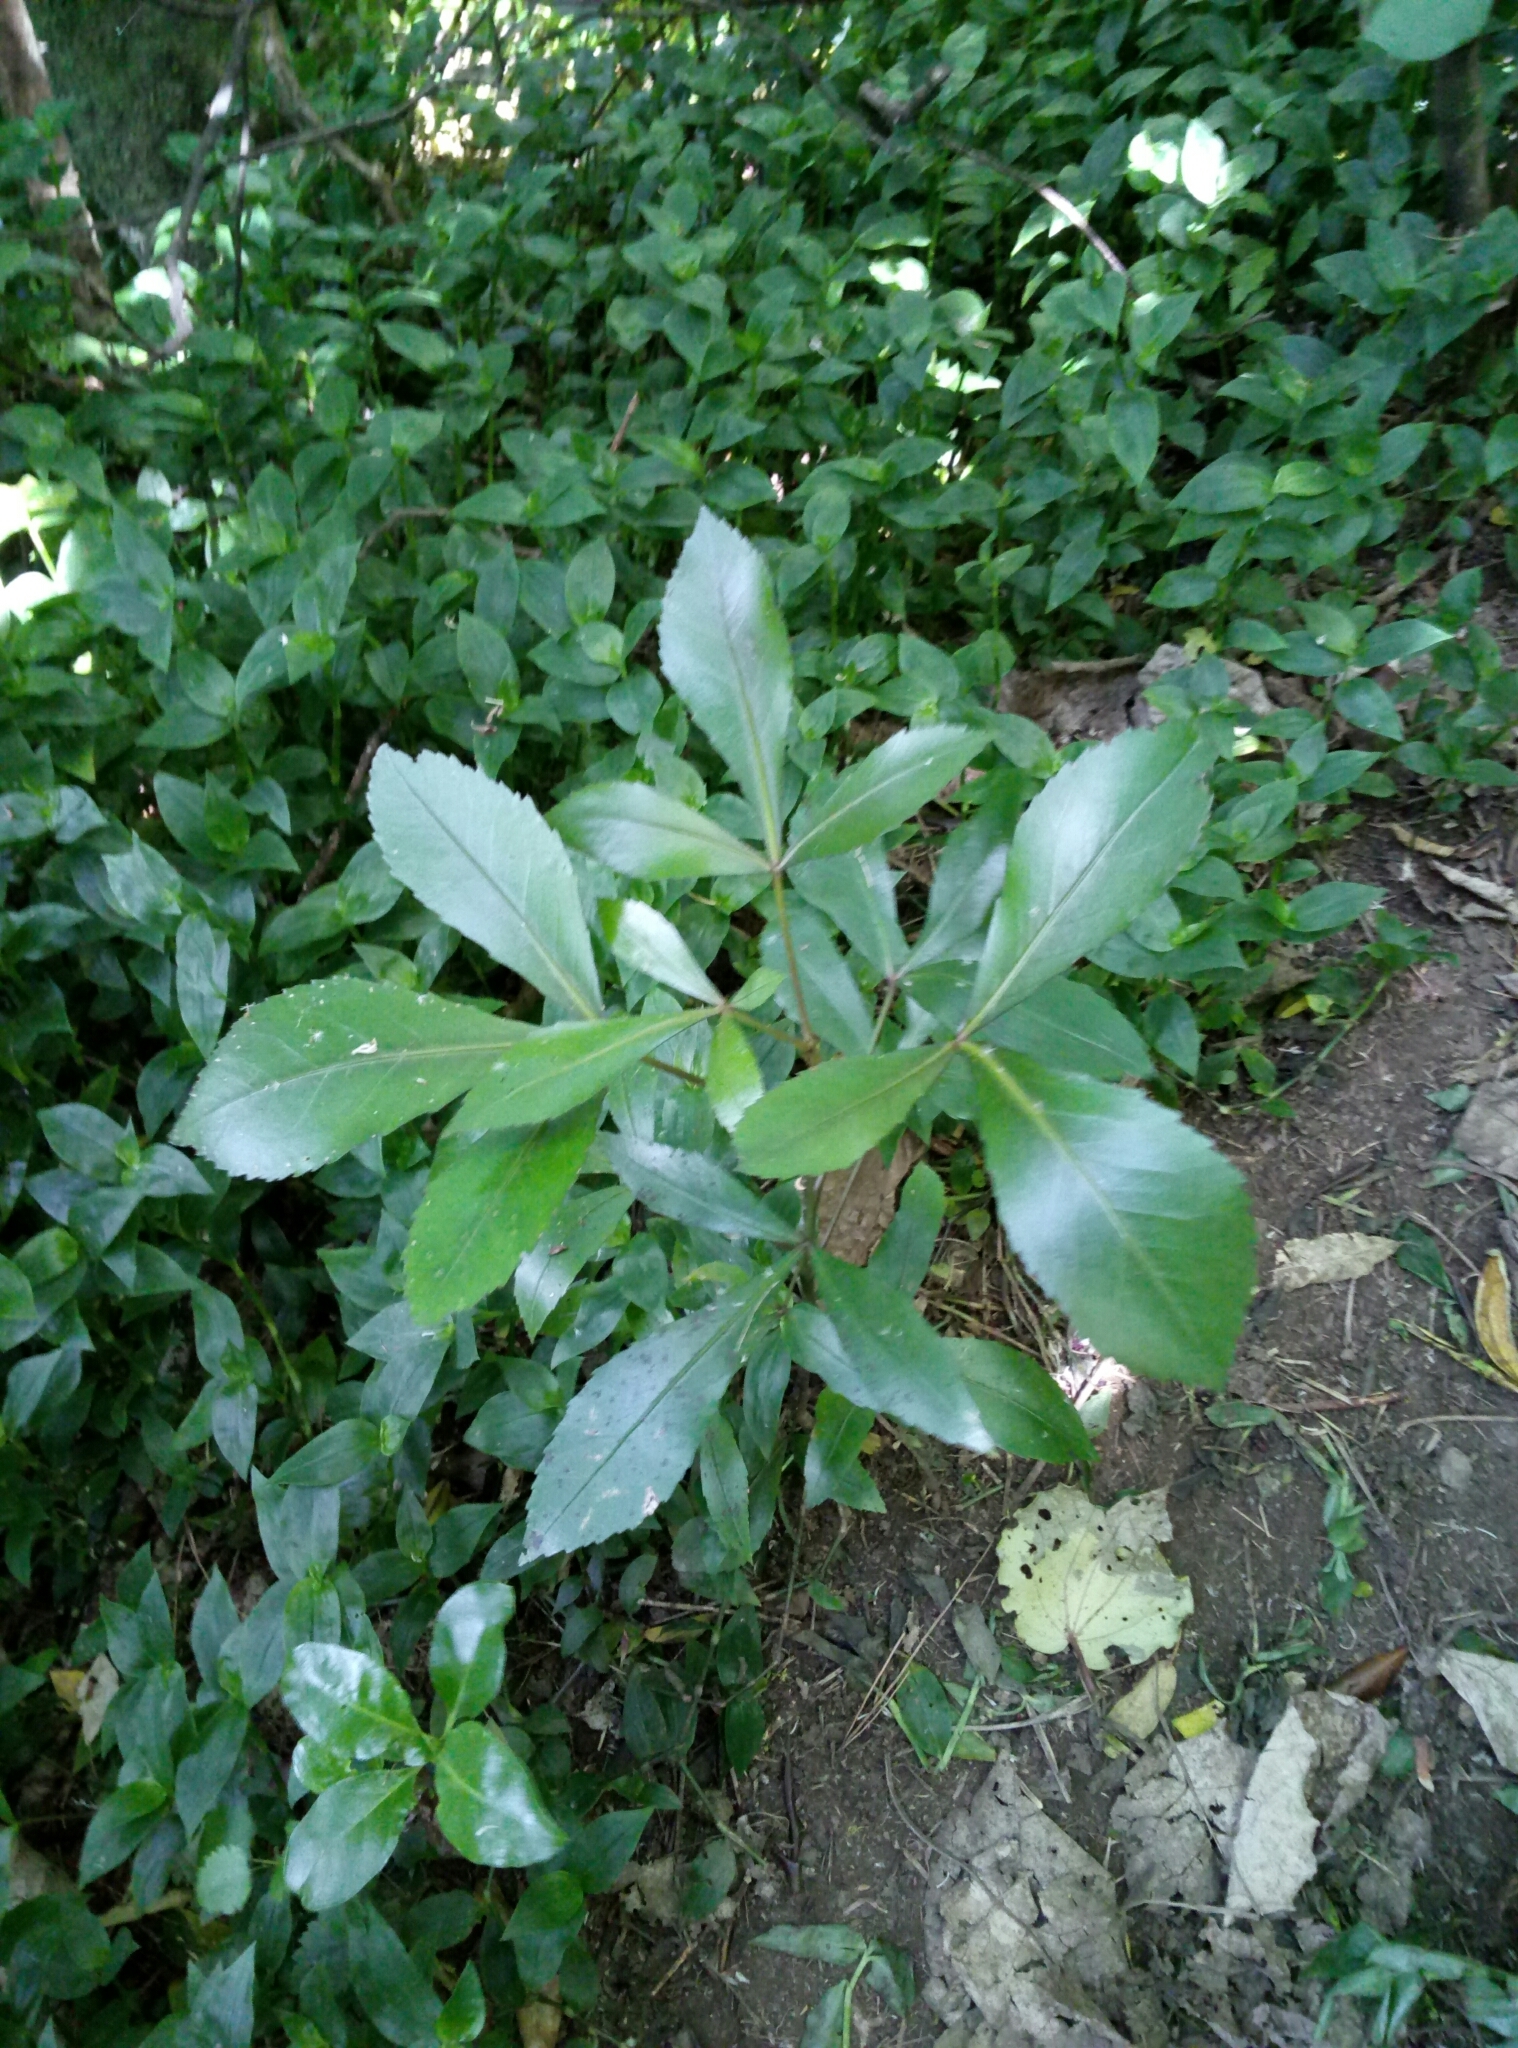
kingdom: Plantae
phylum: Tracheophyta
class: Magnoliopsida
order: Apiales
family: Araliaceae
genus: Pseudopanax
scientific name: Pseudopanax lessonii
